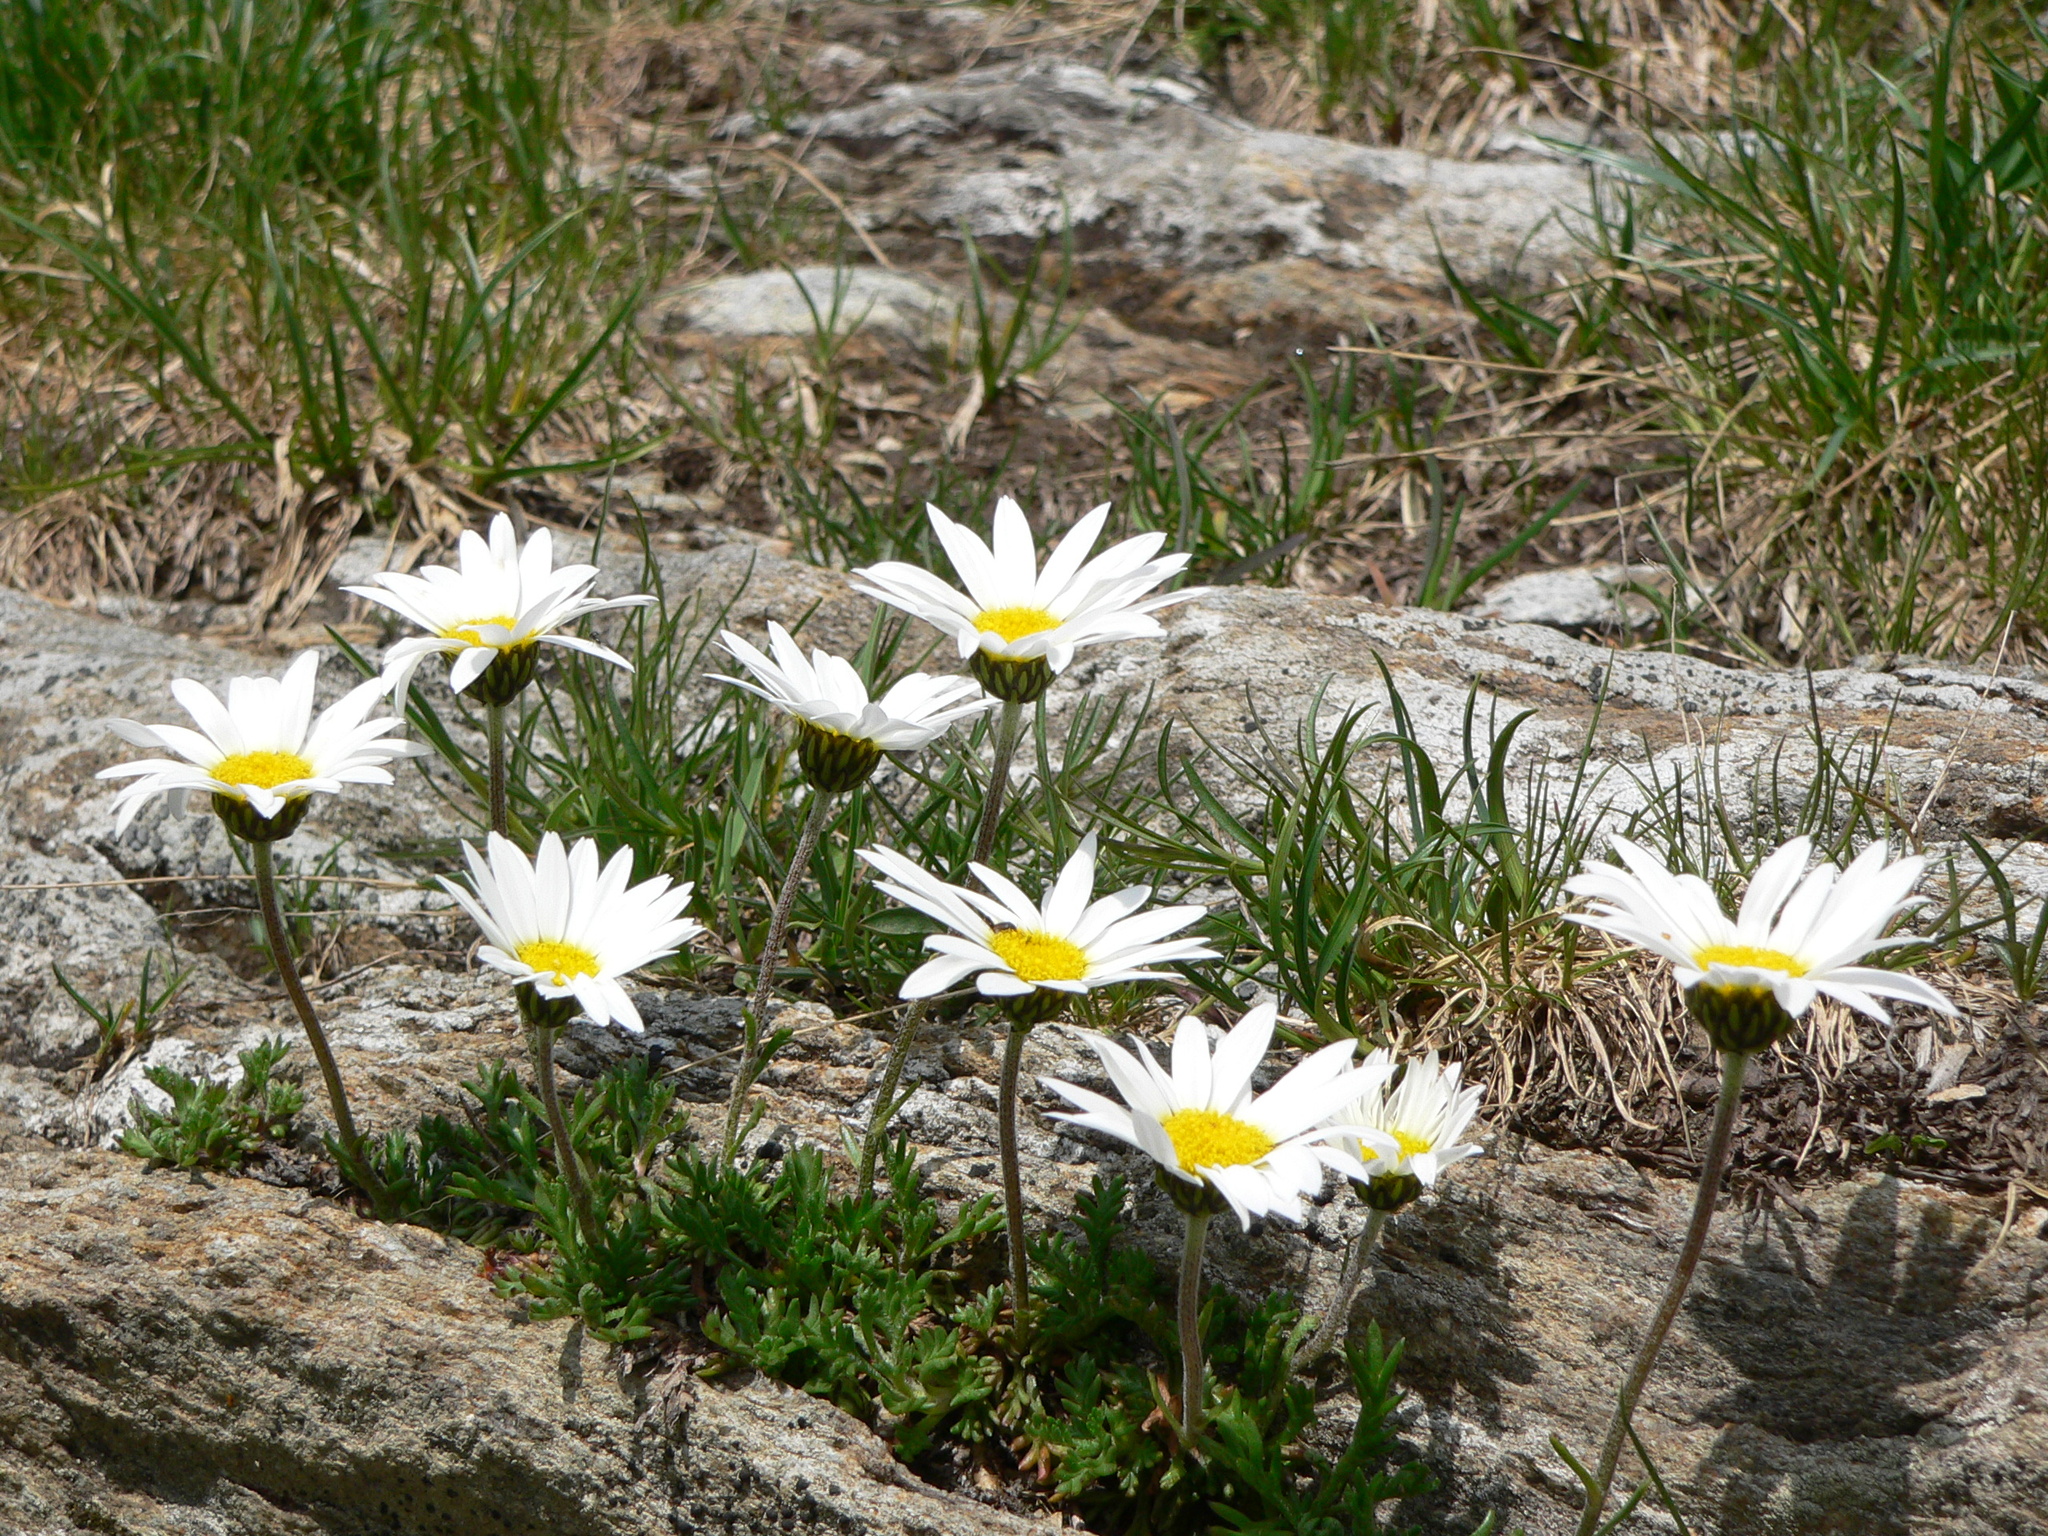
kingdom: Plantae
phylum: Tracheophyta
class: Magnoliopsida
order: Asterales
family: Asteraceae
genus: Leucanthemopsis
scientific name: Leucanthemopsis alpina
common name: Alpine moon daisy
